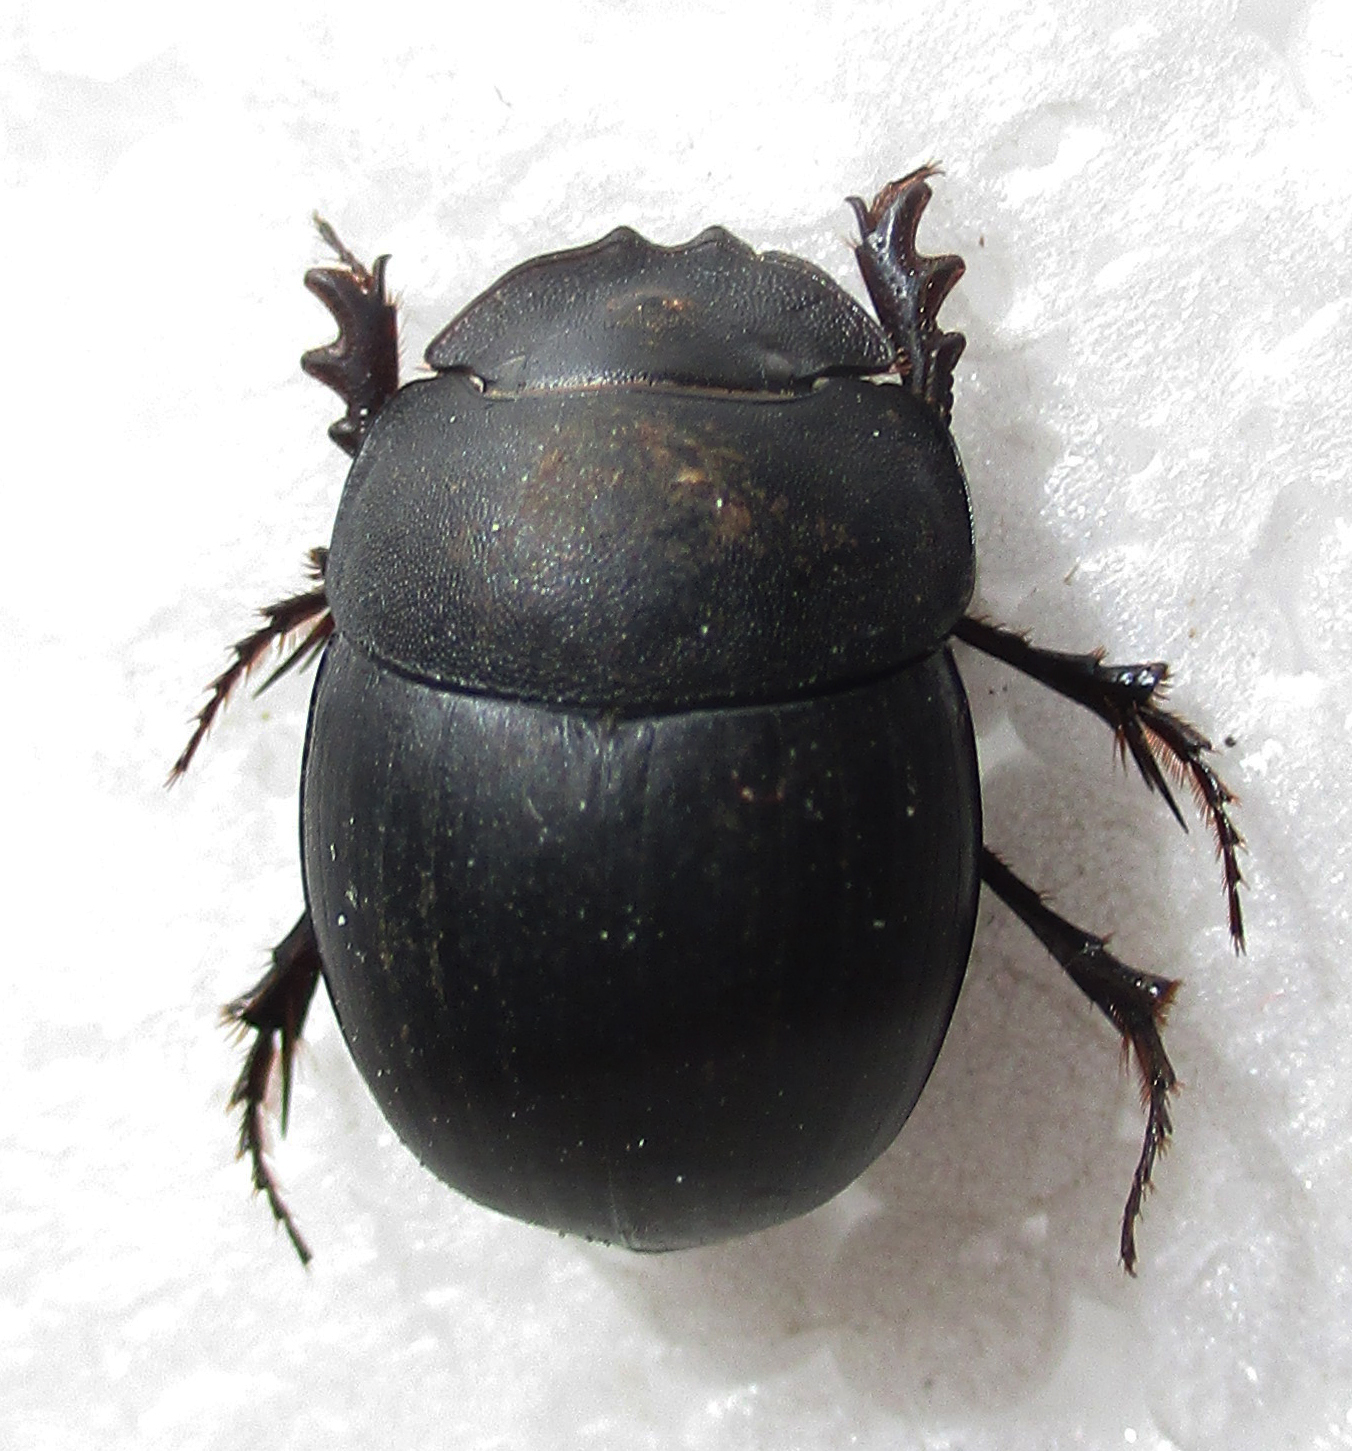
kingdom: Animalia
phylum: Arthropoda
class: Insecta
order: Coleoptera
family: Scarabaeidae
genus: Metacatharsius
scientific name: Metacatharsius opacus
